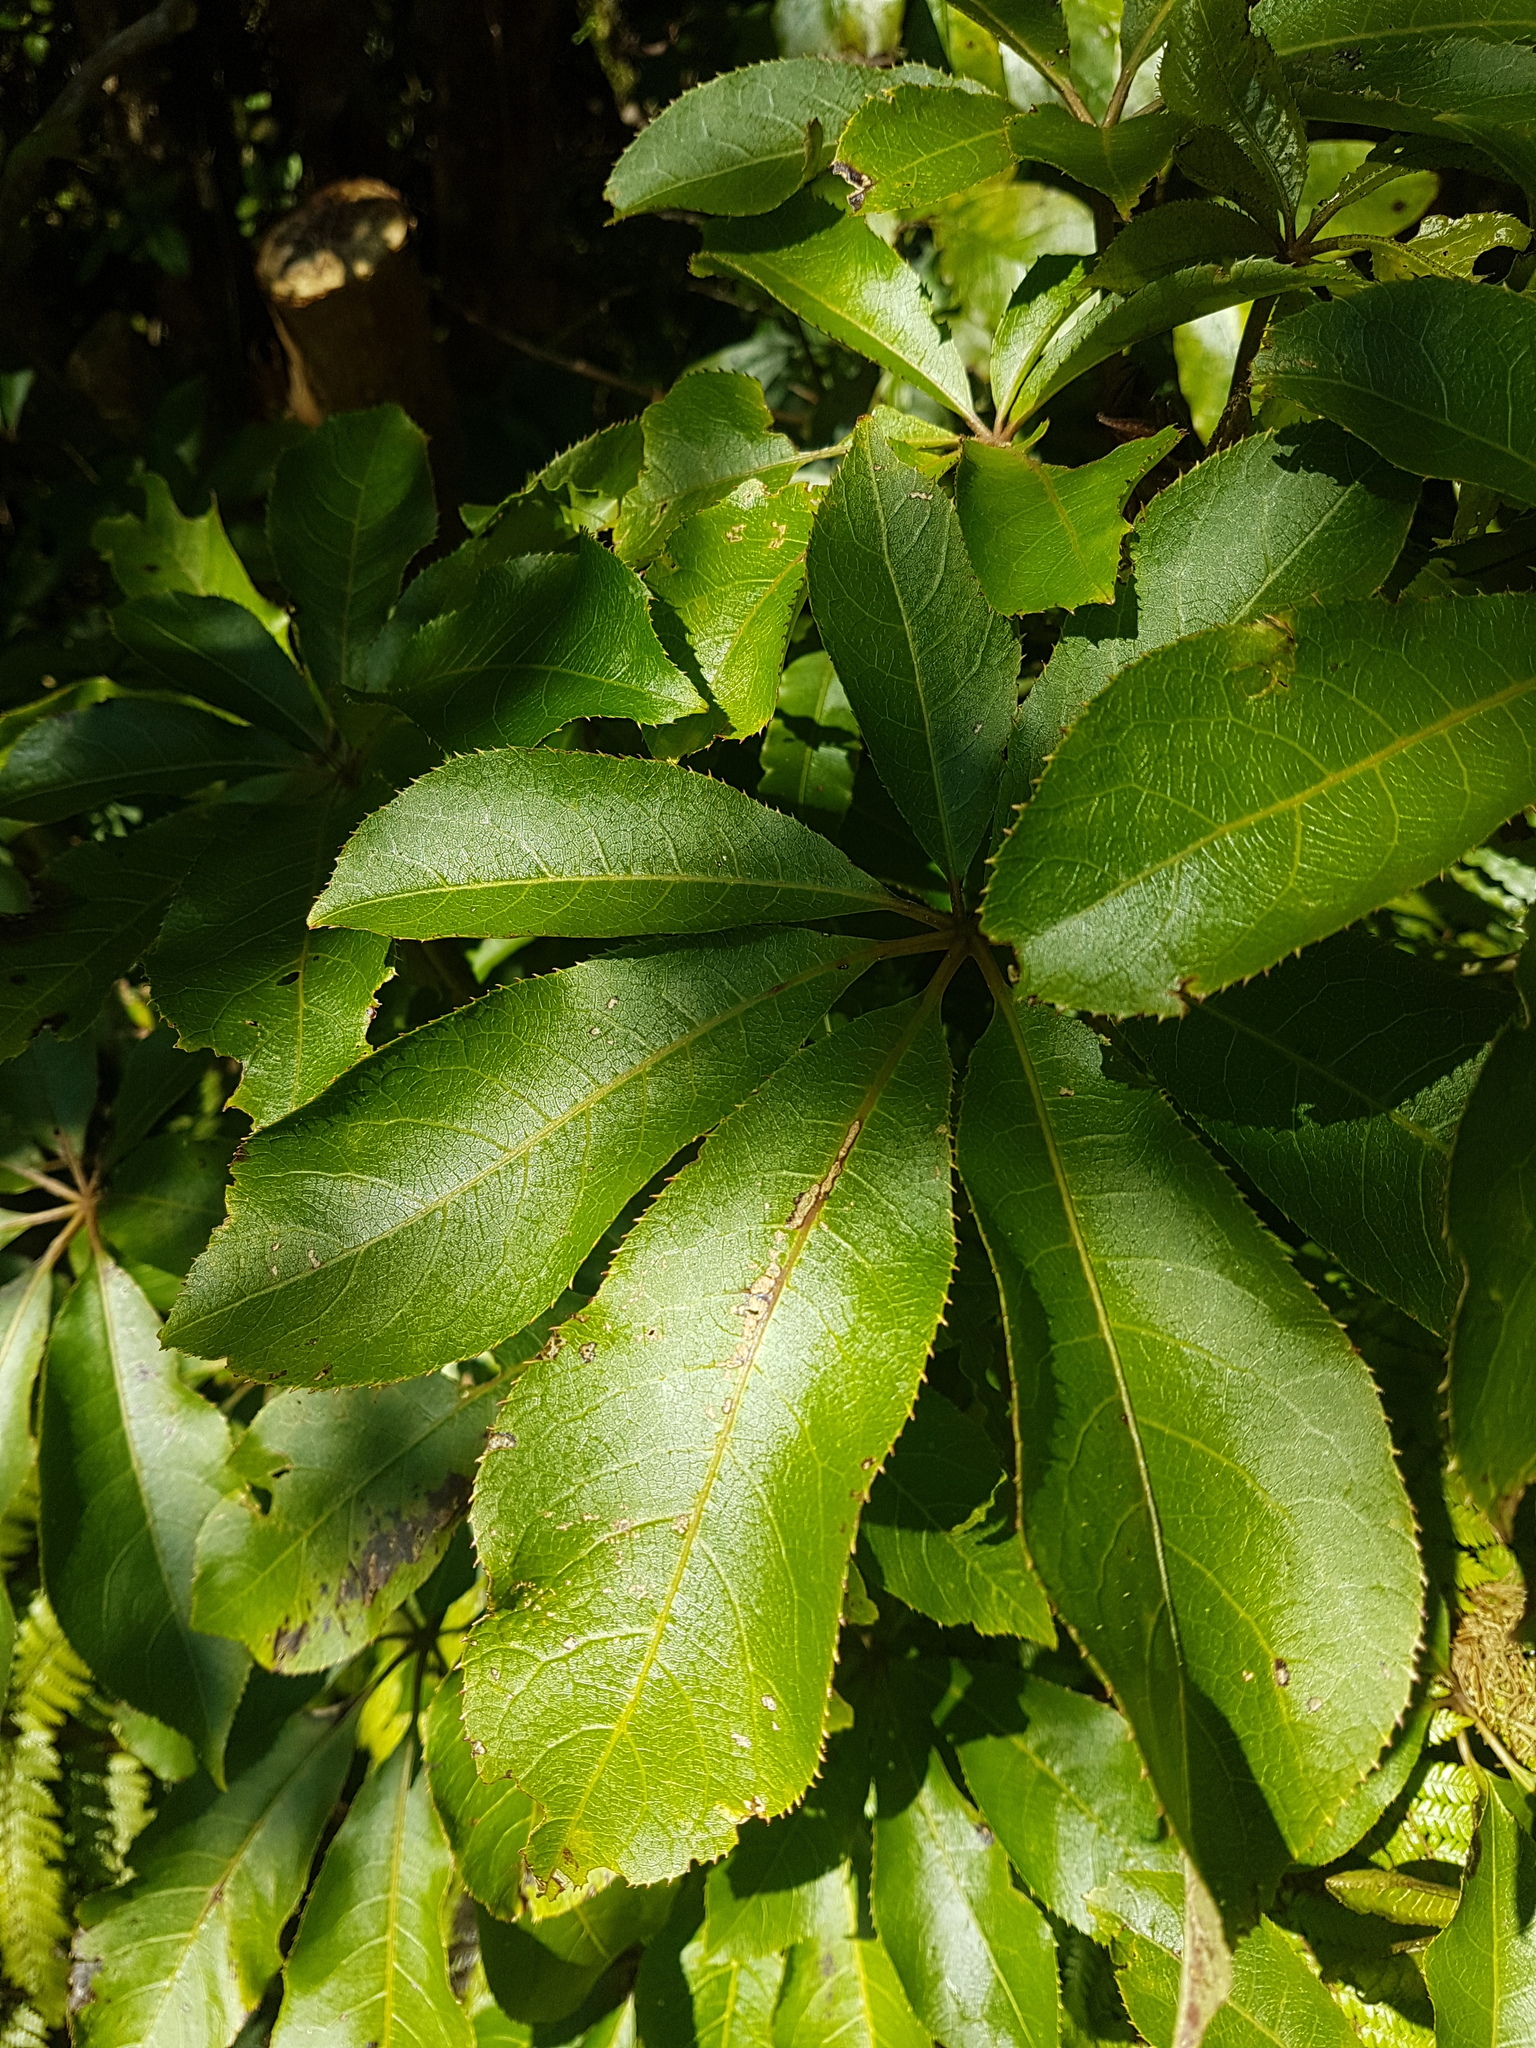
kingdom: Plantae
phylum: Tracheophyta
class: Magnoliopsida
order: Apiales
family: Araliaceae
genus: Schefflera
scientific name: Schefflera digitata
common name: Pate
